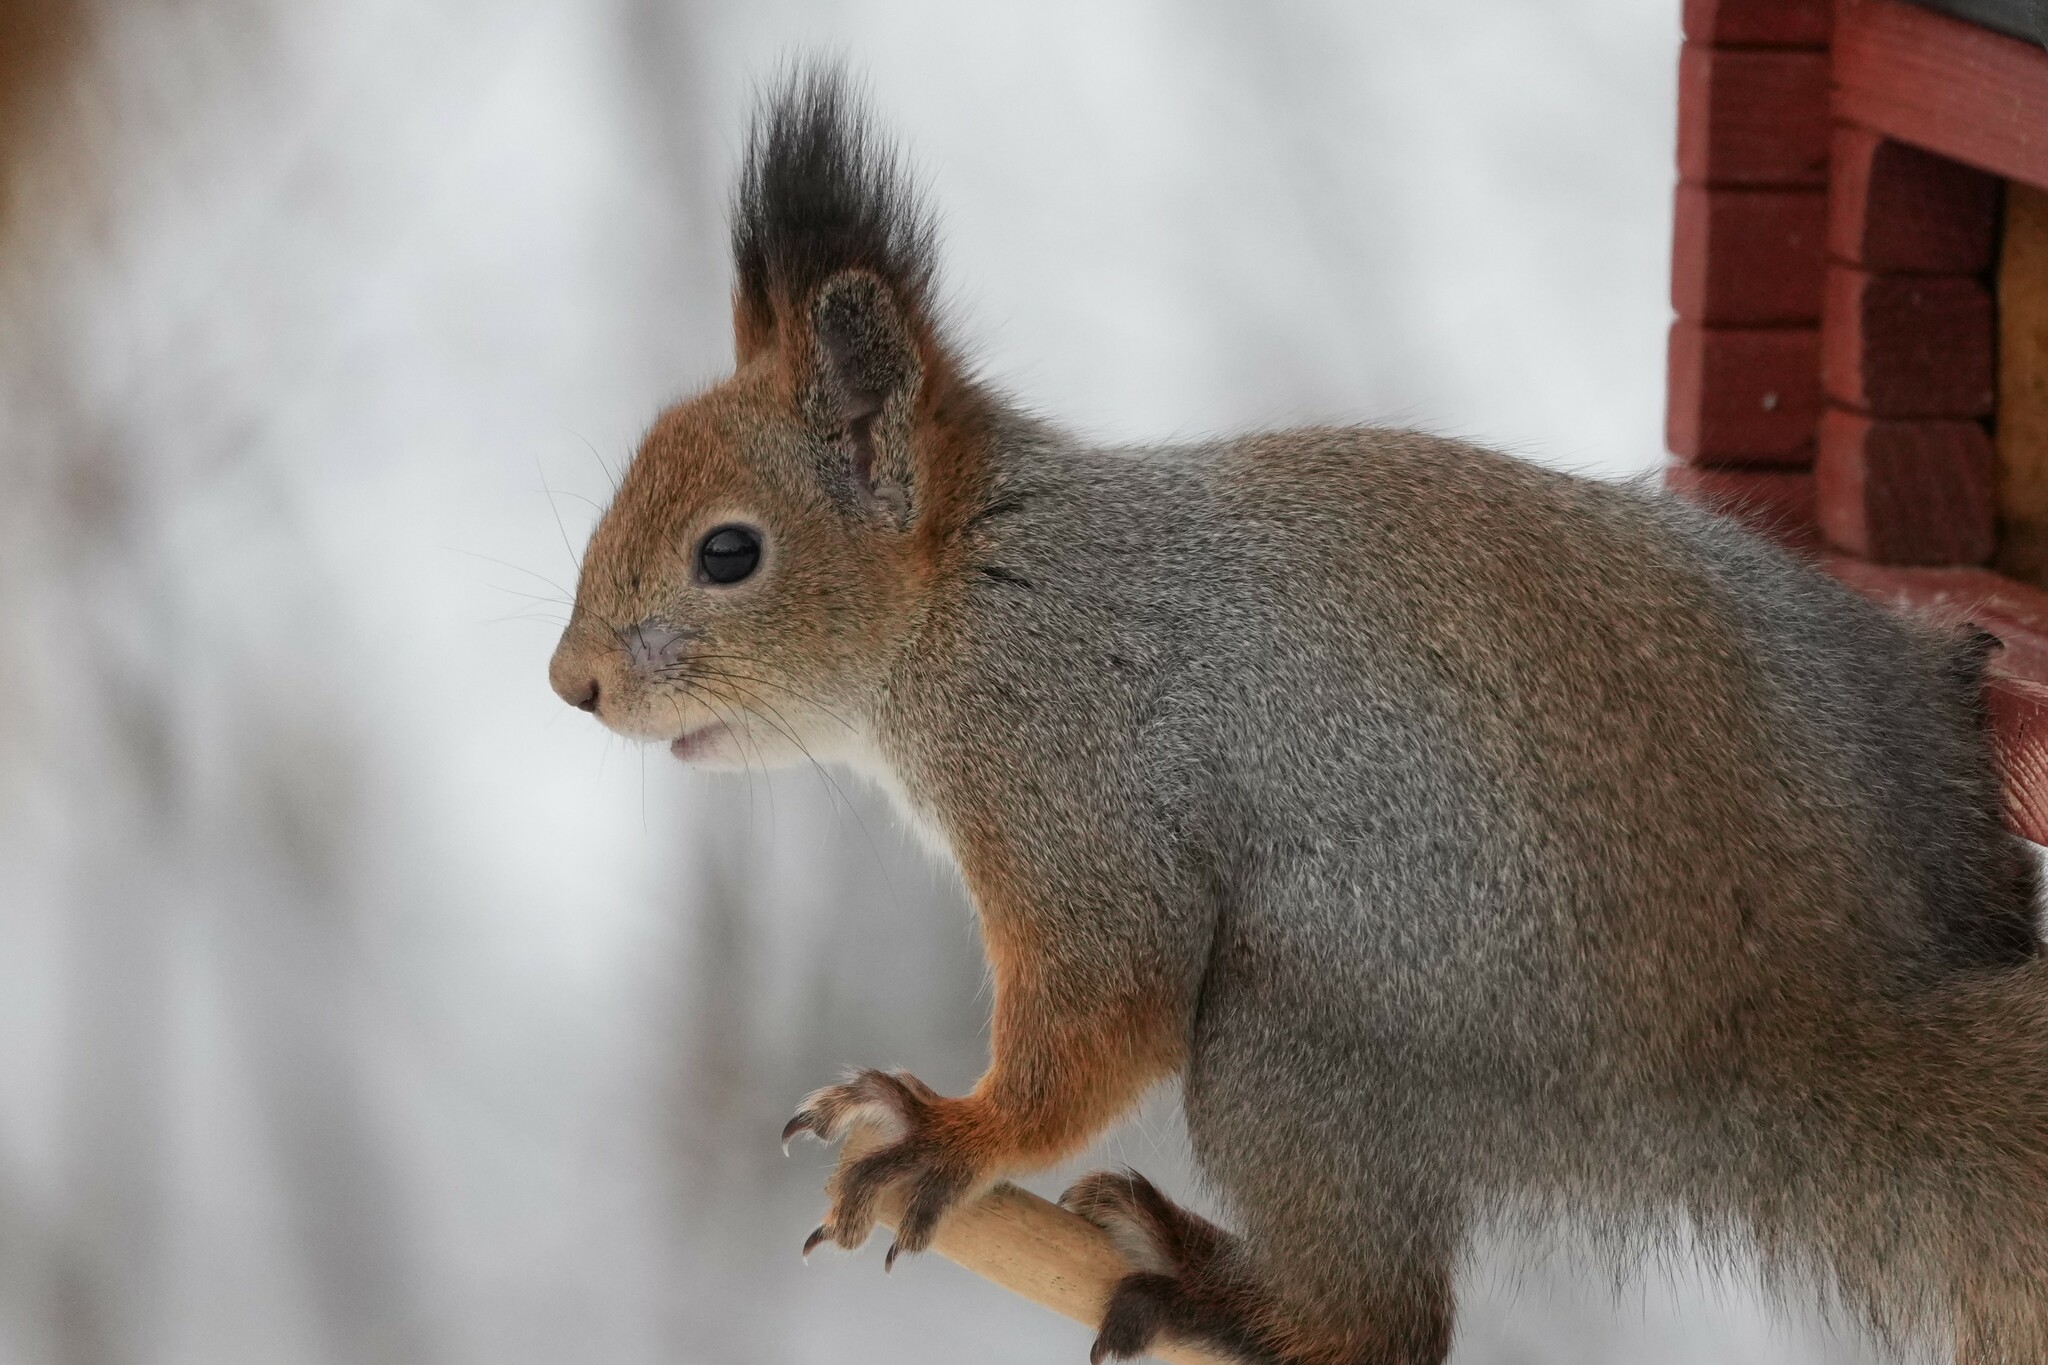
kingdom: Animalia
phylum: Chordata
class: Mammalia
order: Rodentia
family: Sciuridae
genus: Sciurus
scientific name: Sciurus vulgaris
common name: Eurasian red squirrel
